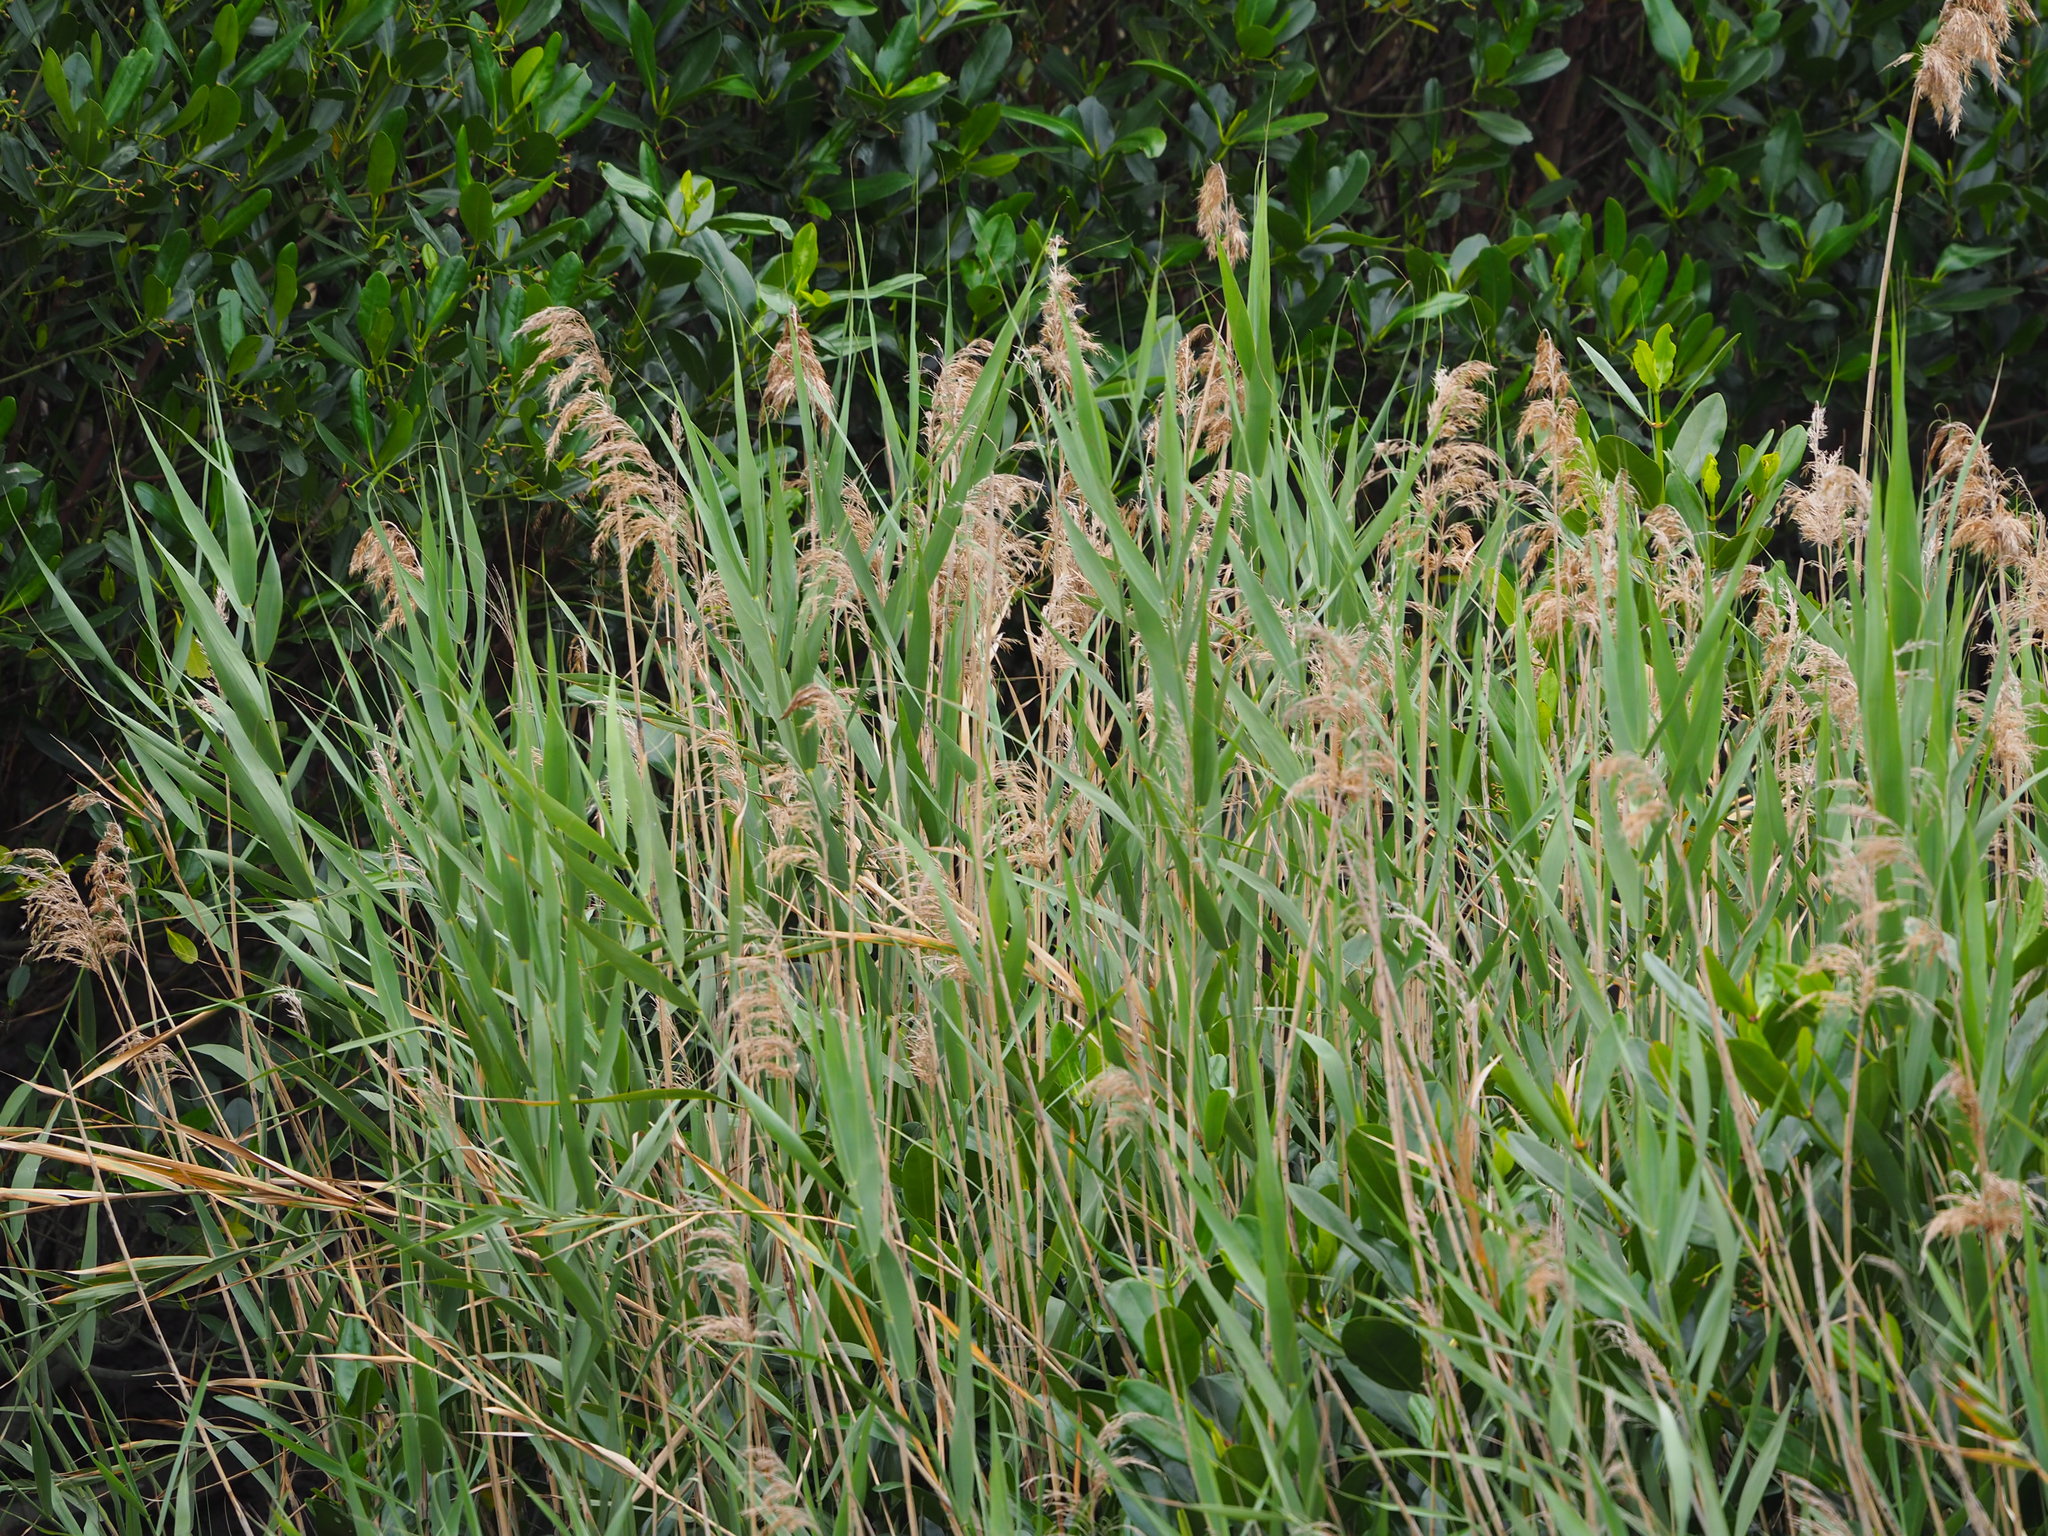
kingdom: Plantae
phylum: Tracheophyta
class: Liliopsida
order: Poales
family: Poaceae
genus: Phragmites
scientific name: Phragmites australis
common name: Common reed
